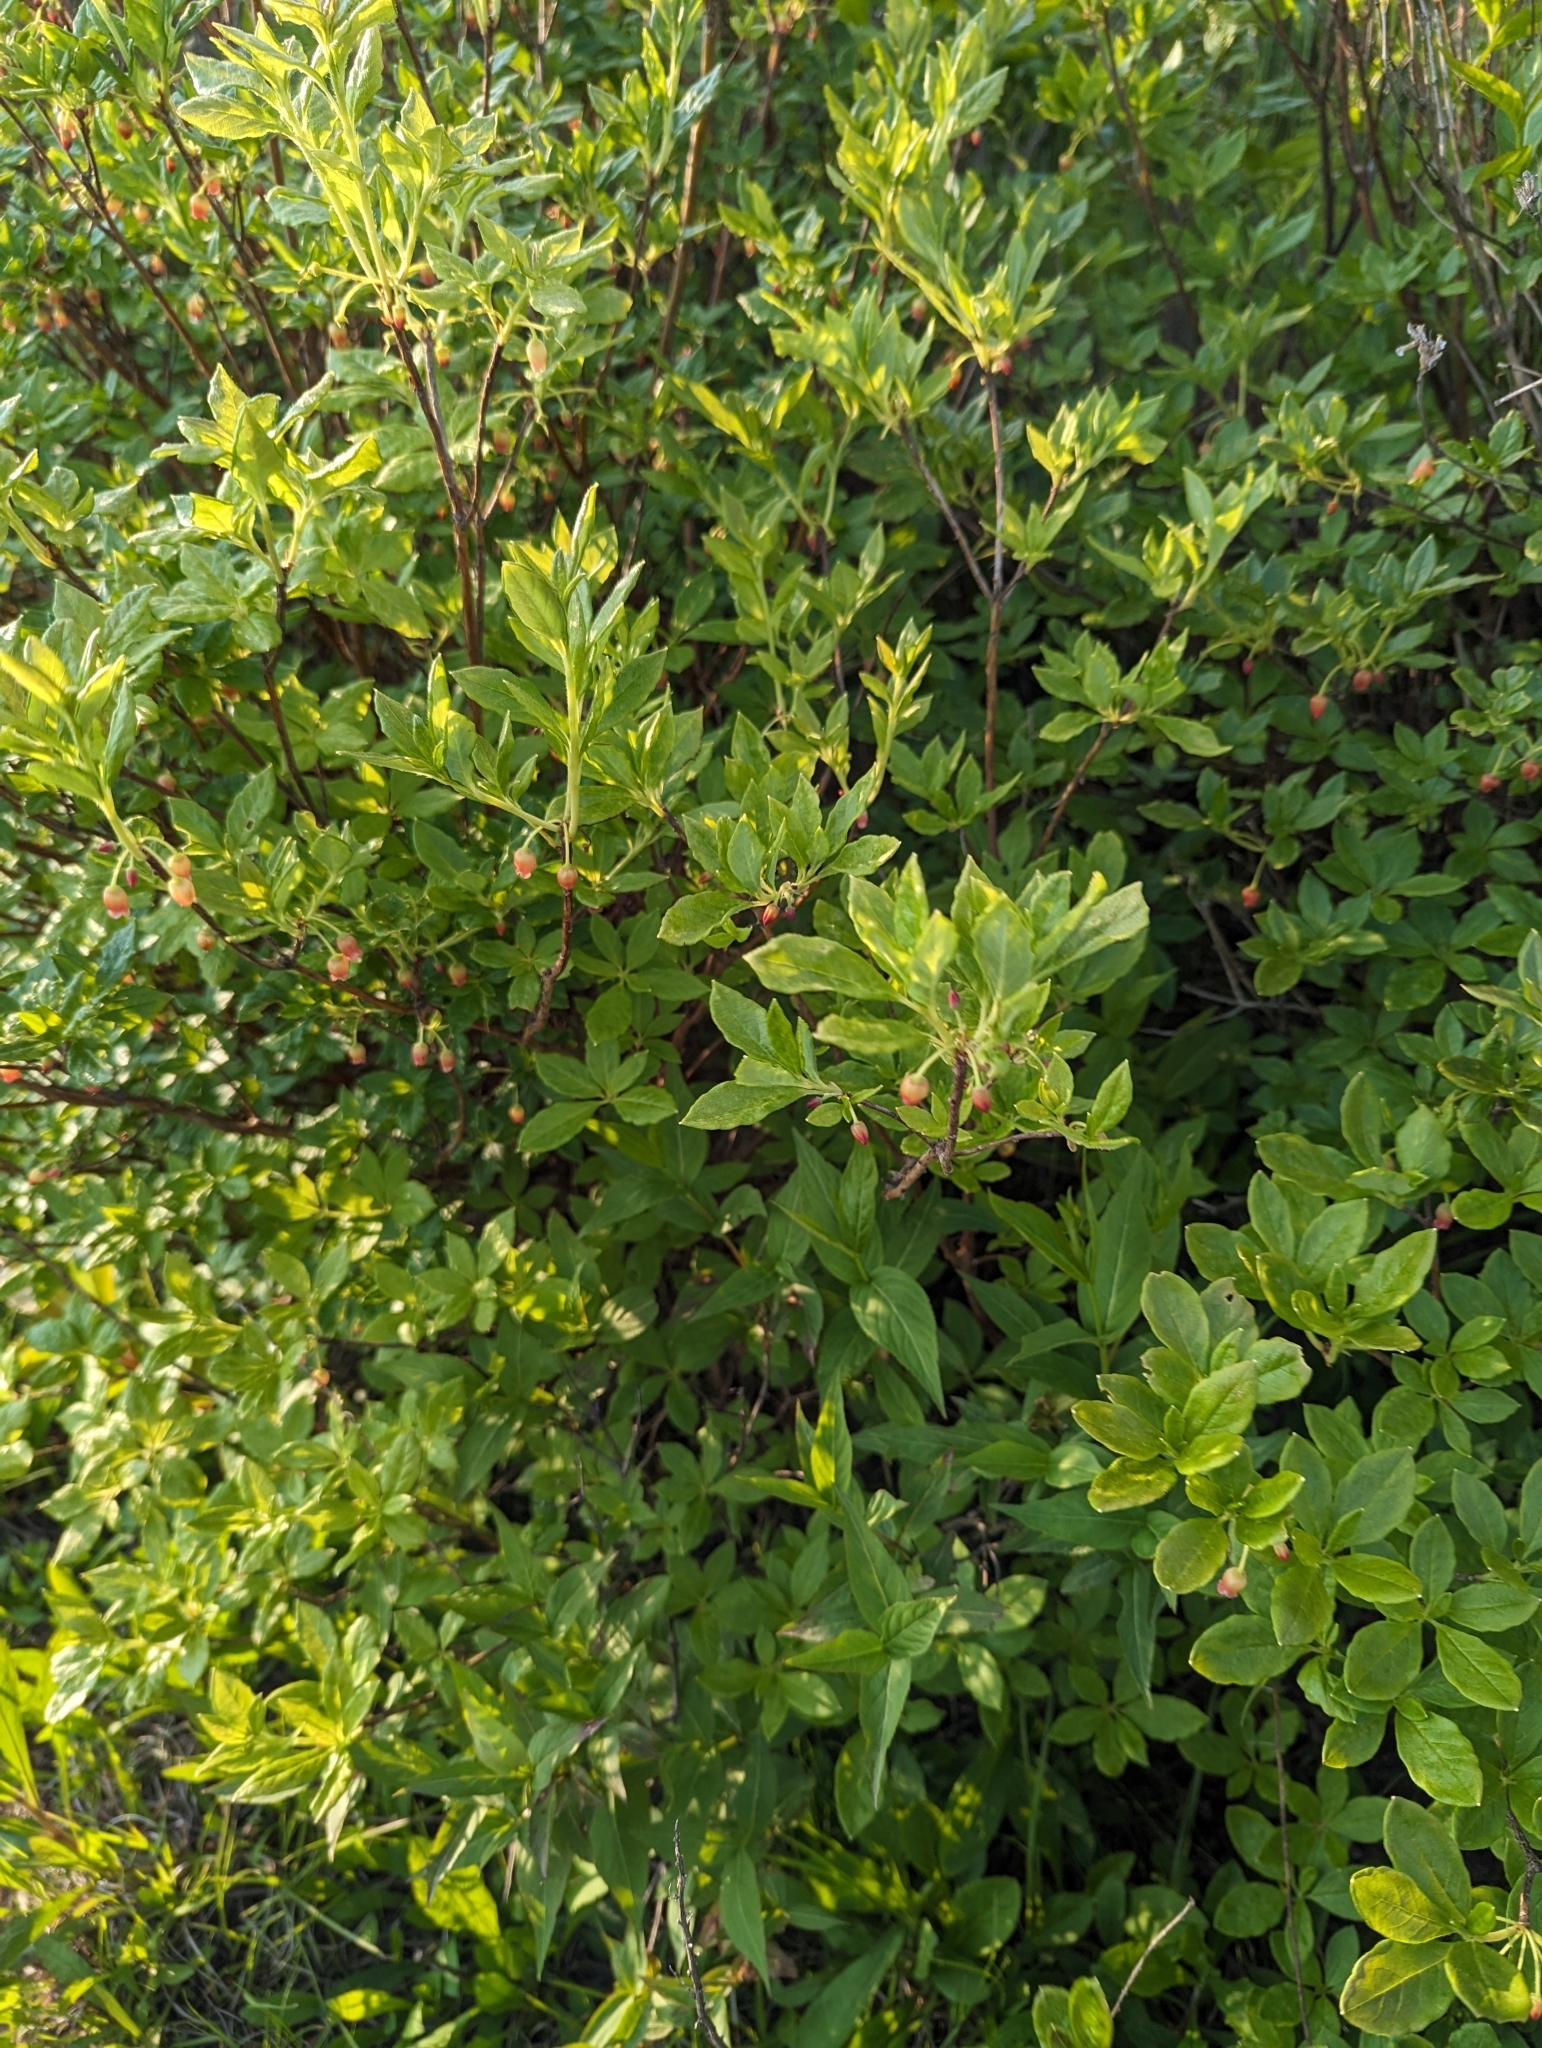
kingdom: Plantae
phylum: Tracheophyta
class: Magnoliopsida
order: Ericales
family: Ericaceae
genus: Rhododendron
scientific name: Rhododendron pilosum
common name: Hairy minniebush
